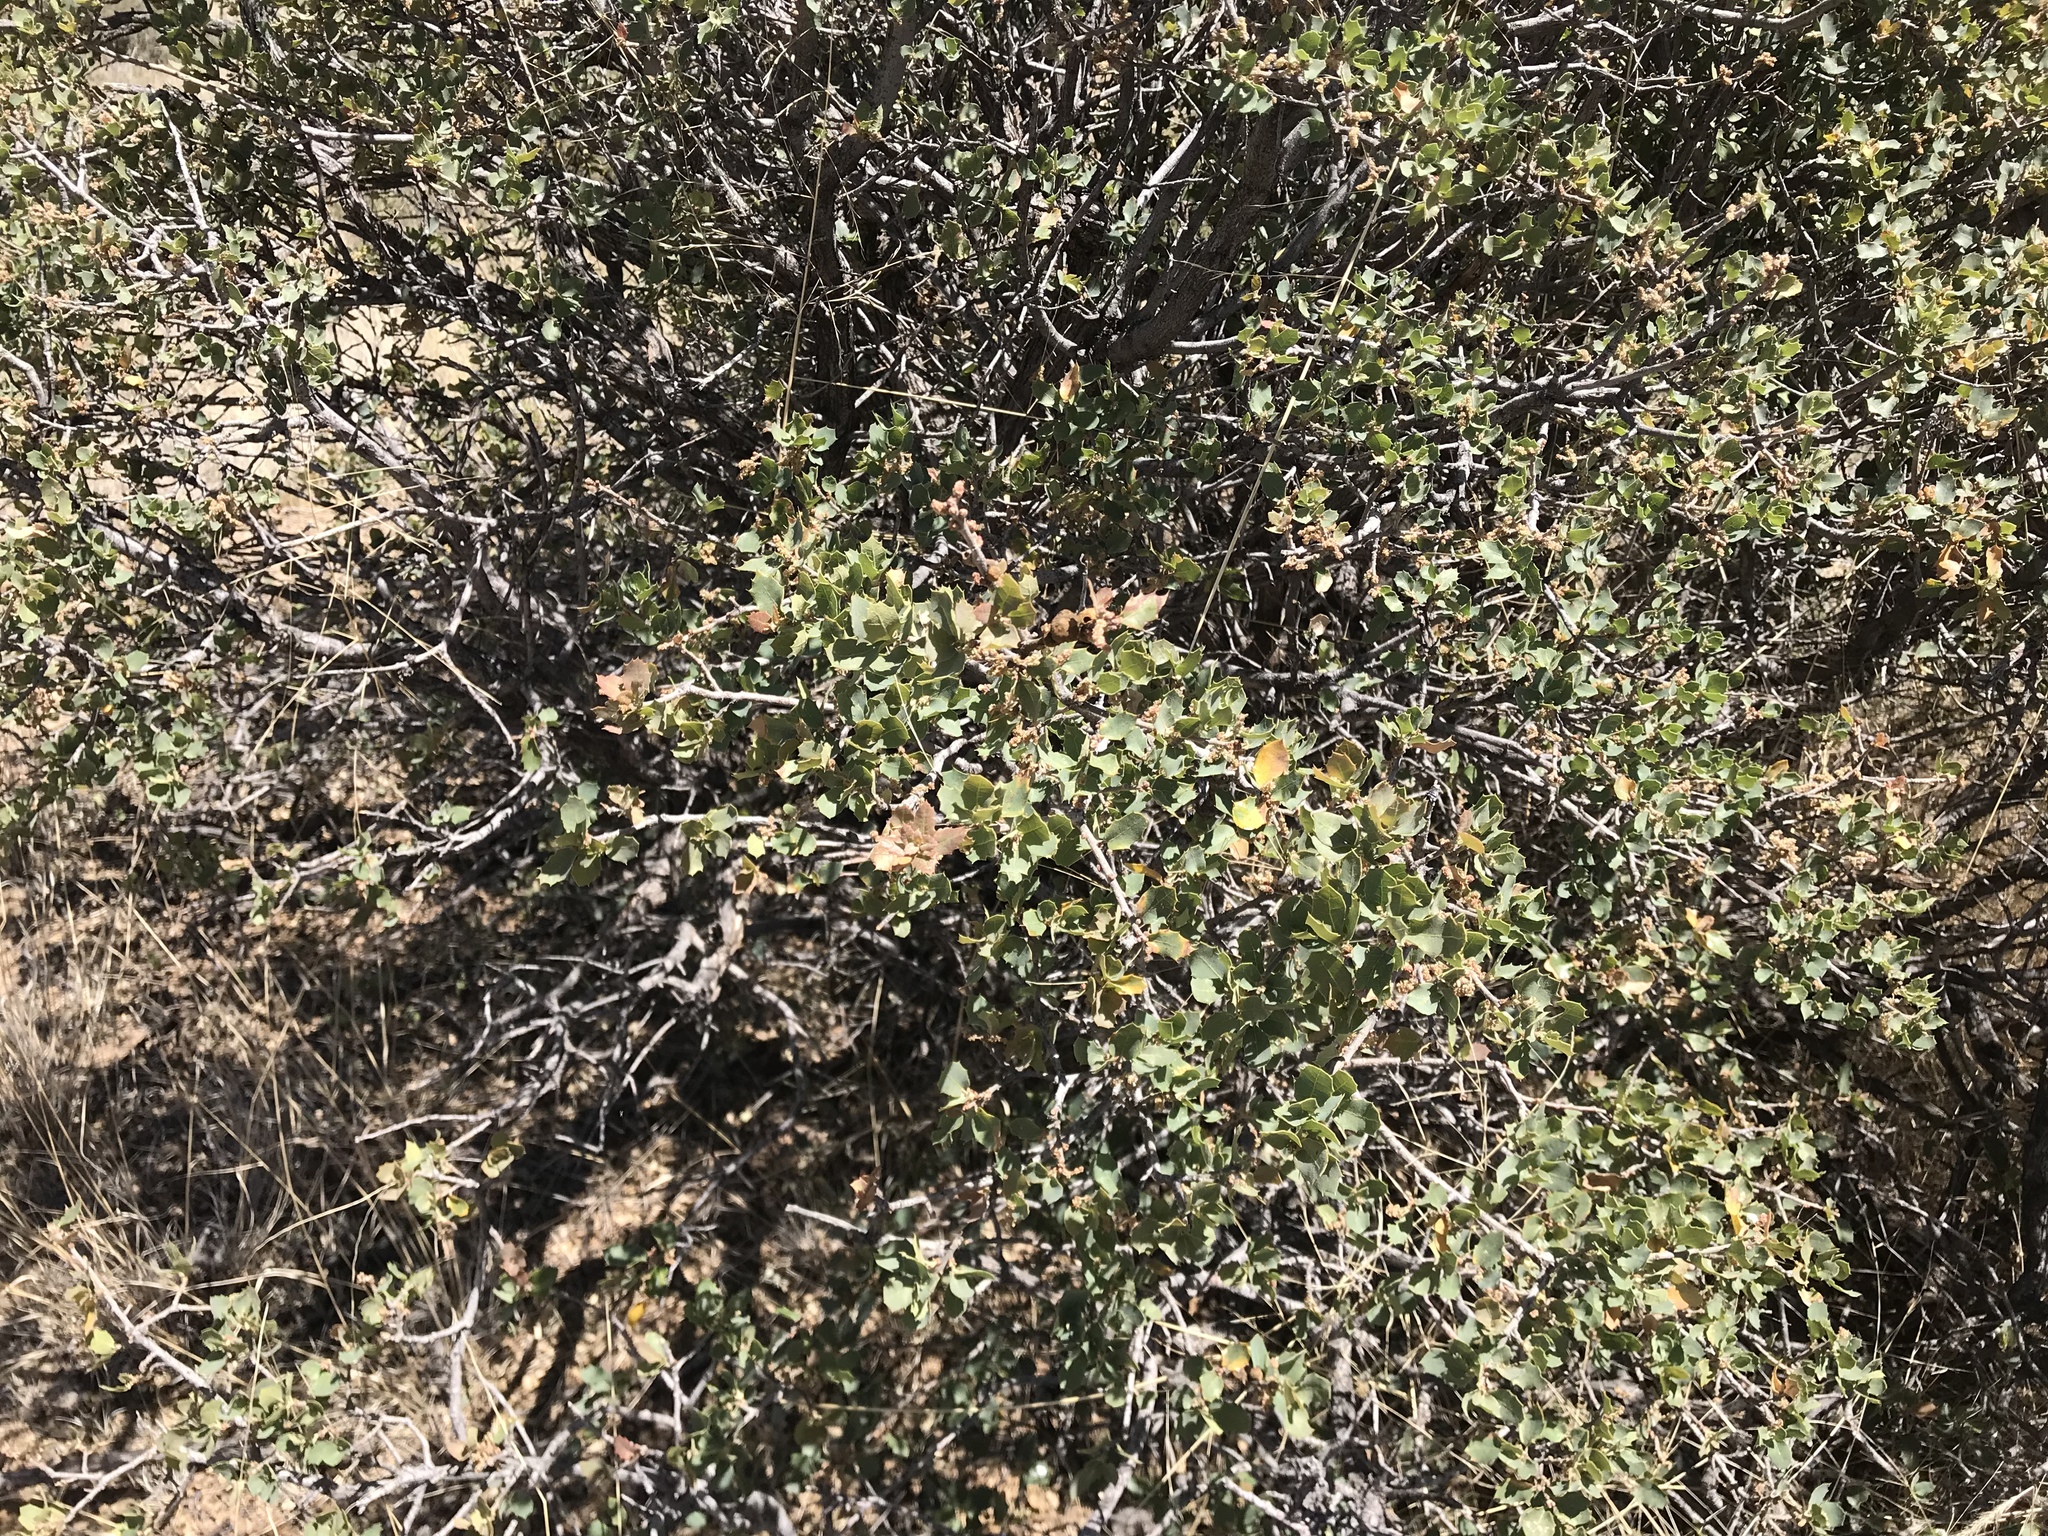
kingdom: Plantae
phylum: Tracheophyta
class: Magnoliopsida
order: Fagales
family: Fagaceae
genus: Quercus
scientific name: Quercus turbinella
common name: Sonoran scrub oak
